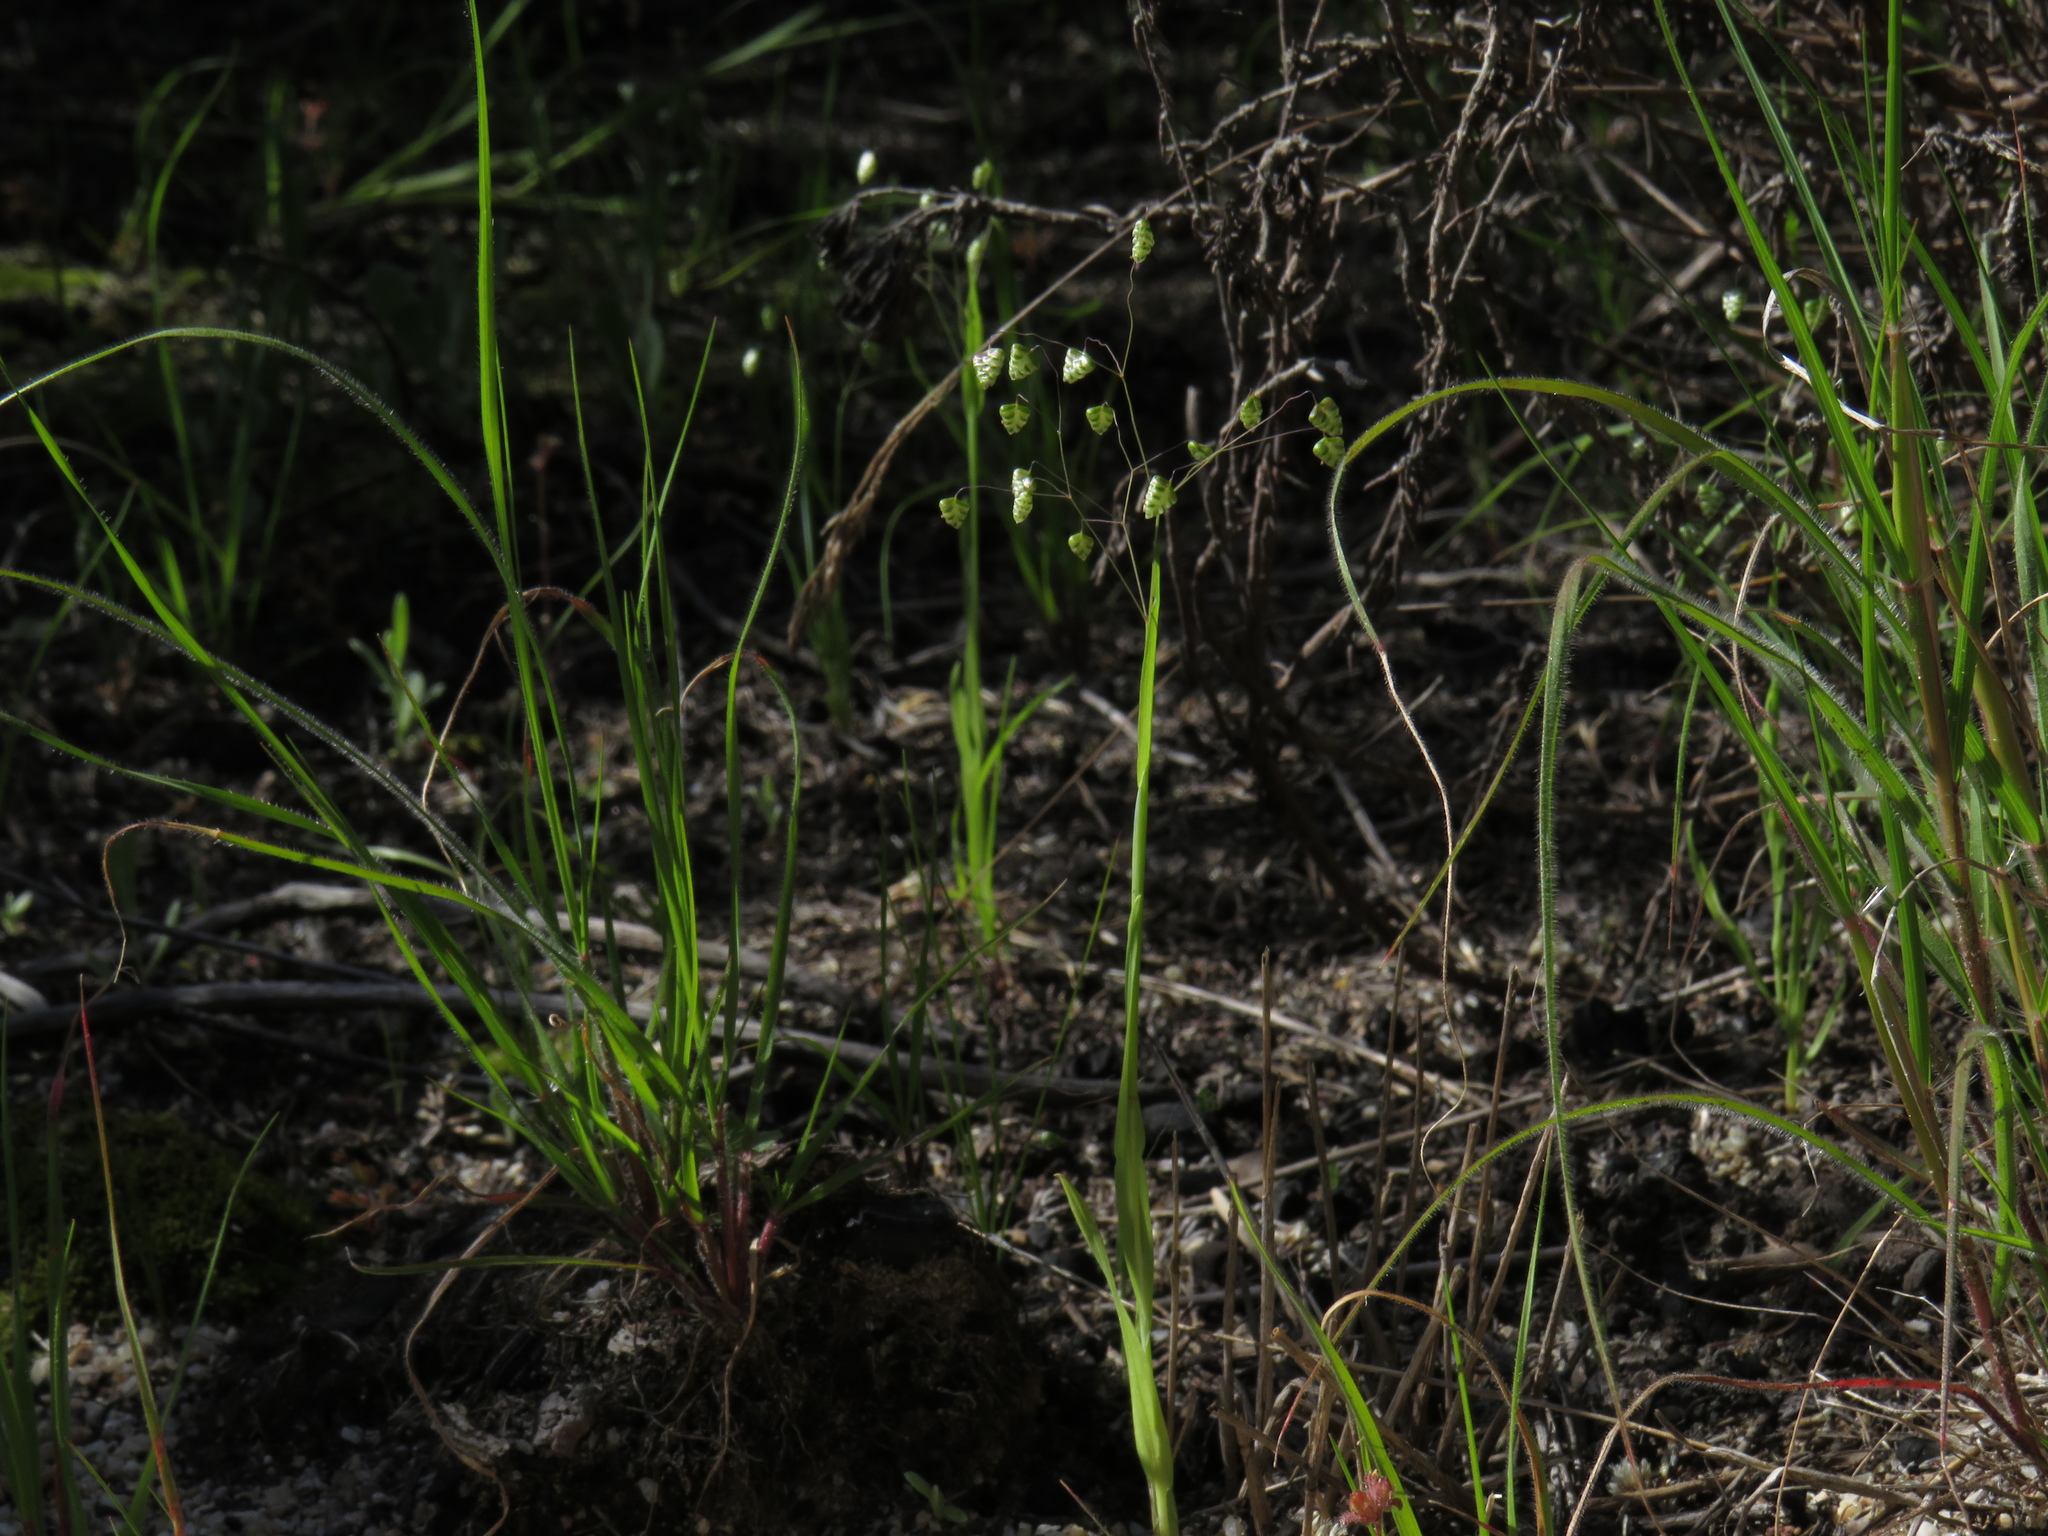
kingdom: Plantae
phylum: Tracheophyta
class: Liliopsida
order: Poales
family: Poaceae
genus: Briza
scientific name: Briza minor
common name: Lesser quaking-grass
